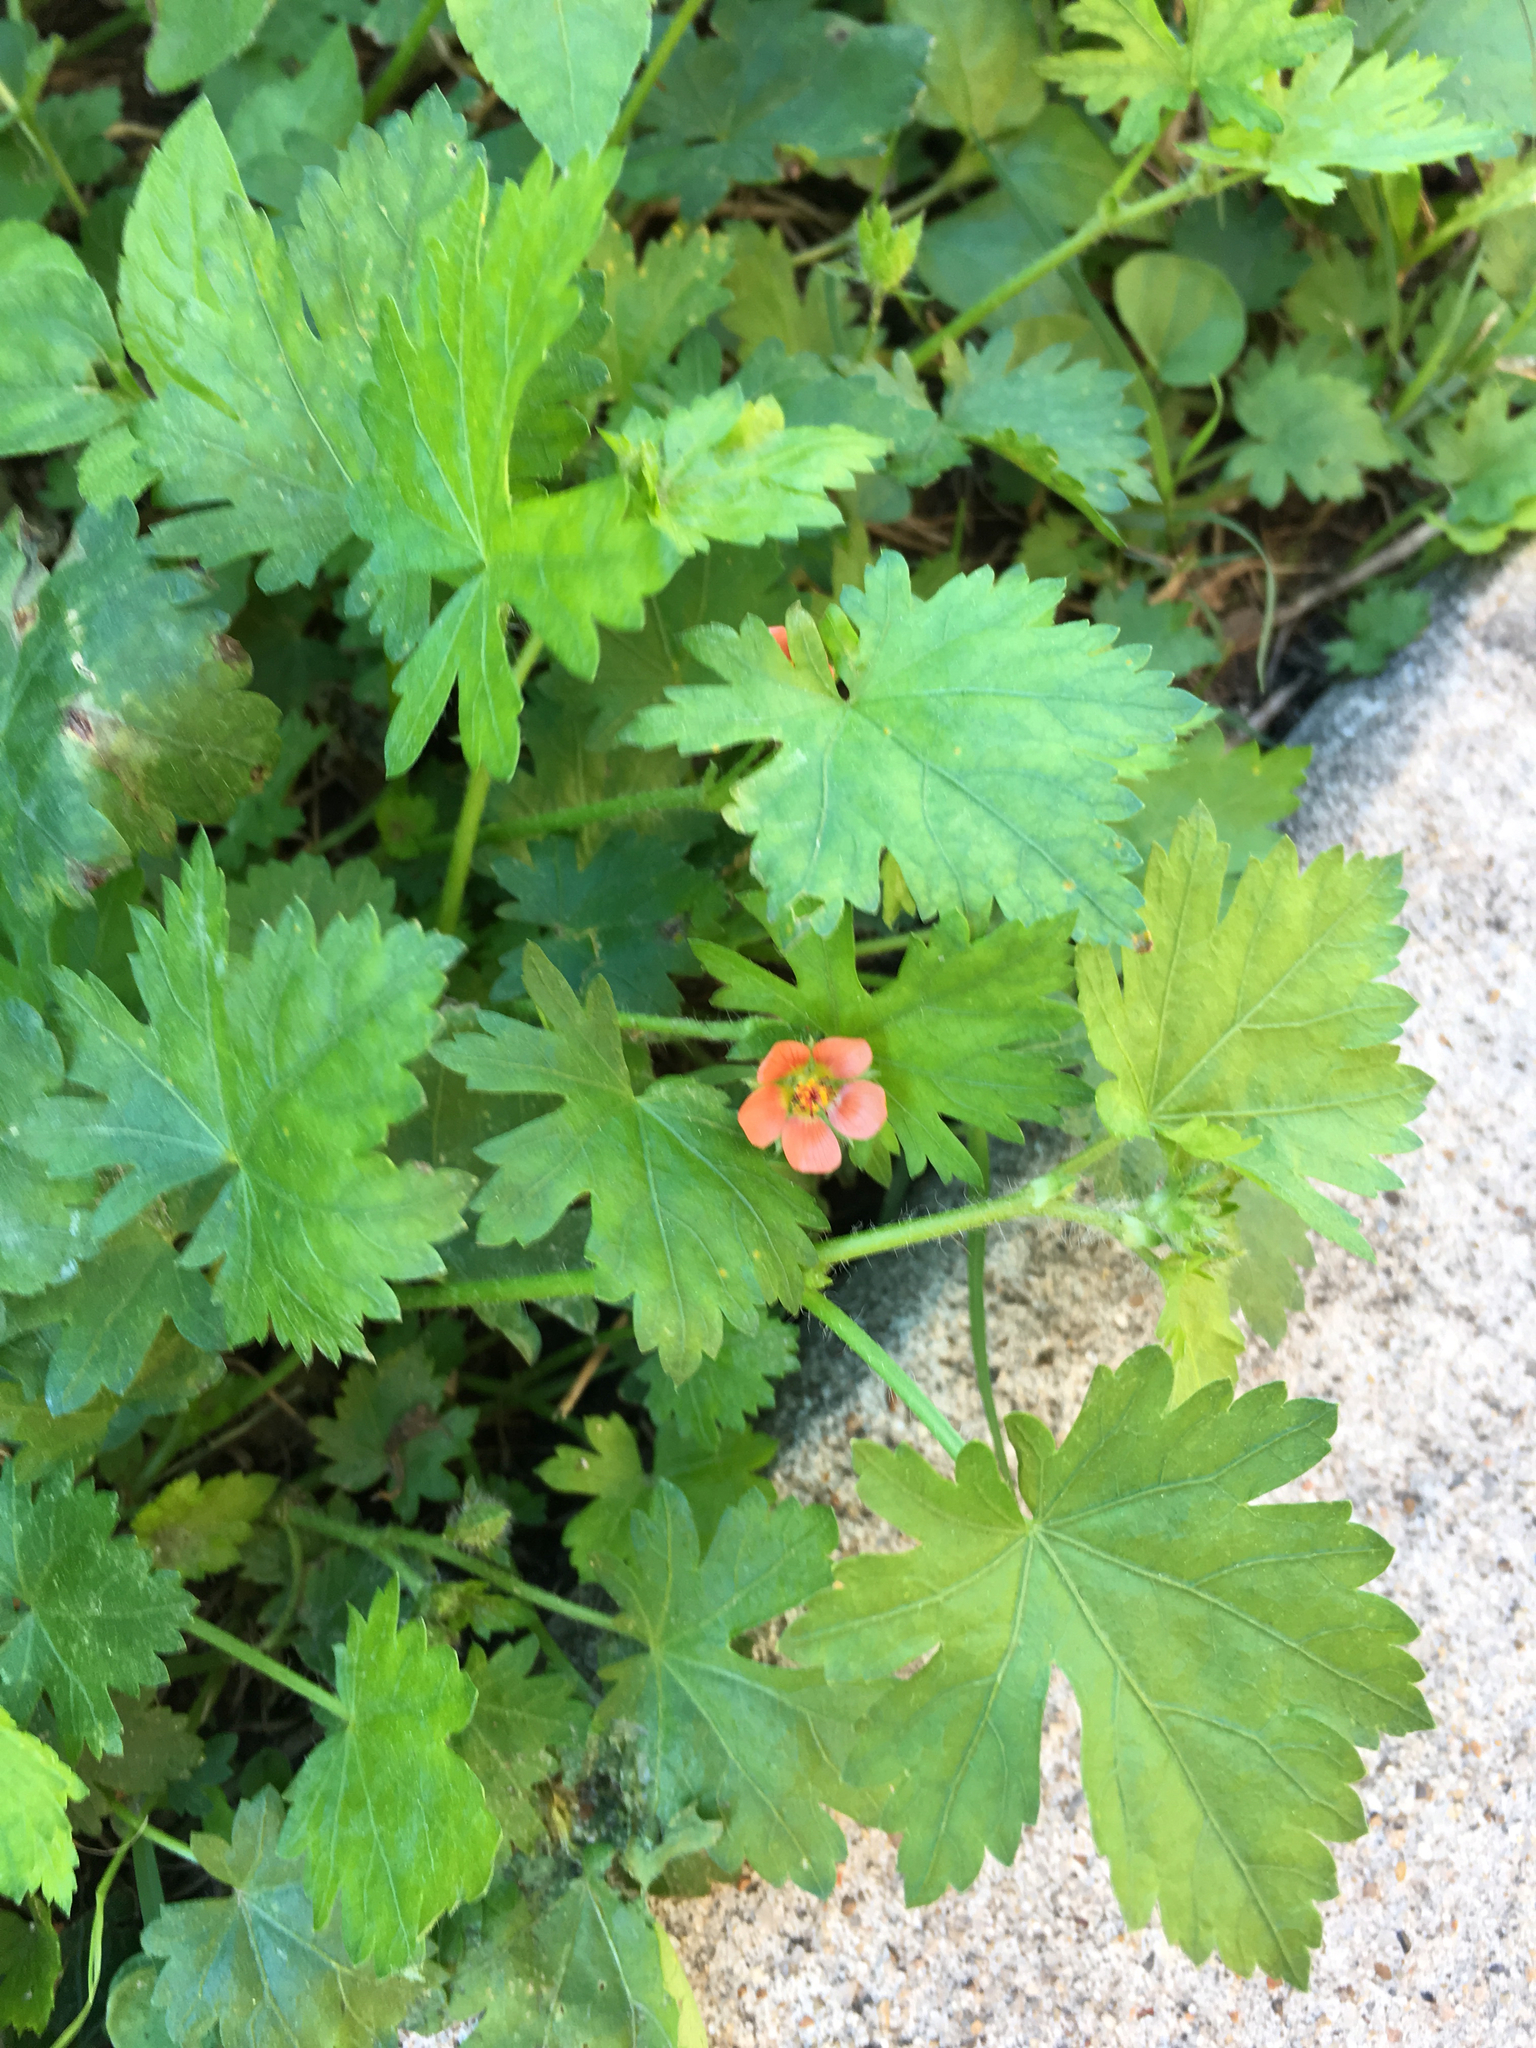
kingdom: Plantae
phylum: Tracheophyta
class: Magnoliopsida
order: Malvales
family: Malvaceae
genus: Modiola
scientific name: Modiola caroliniana
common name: Carolina bristlemallow
